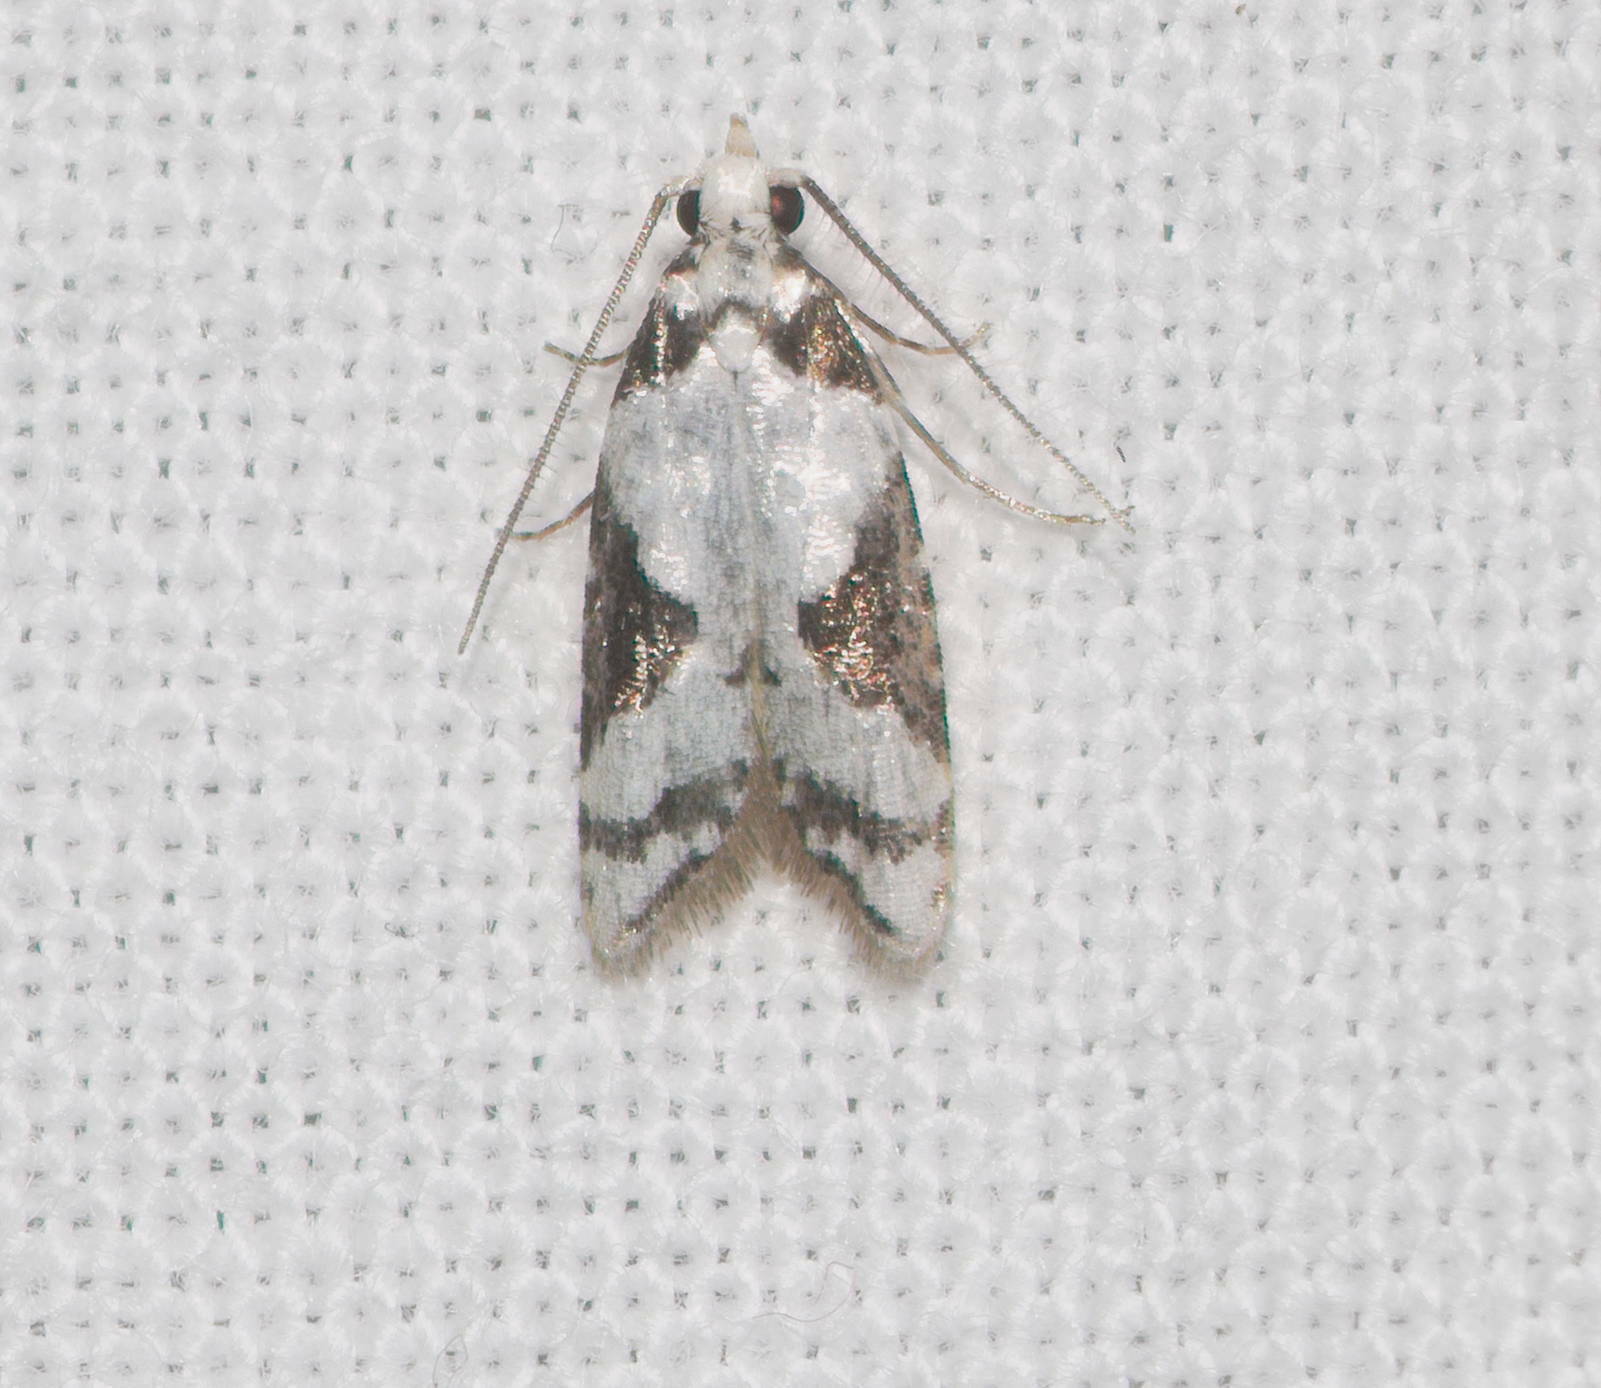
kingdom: Animalia
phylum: Arthropoda
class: Insecta
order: Lepidoptera
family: Carposinidae
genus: Carposina
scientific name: Carposina inscripta
